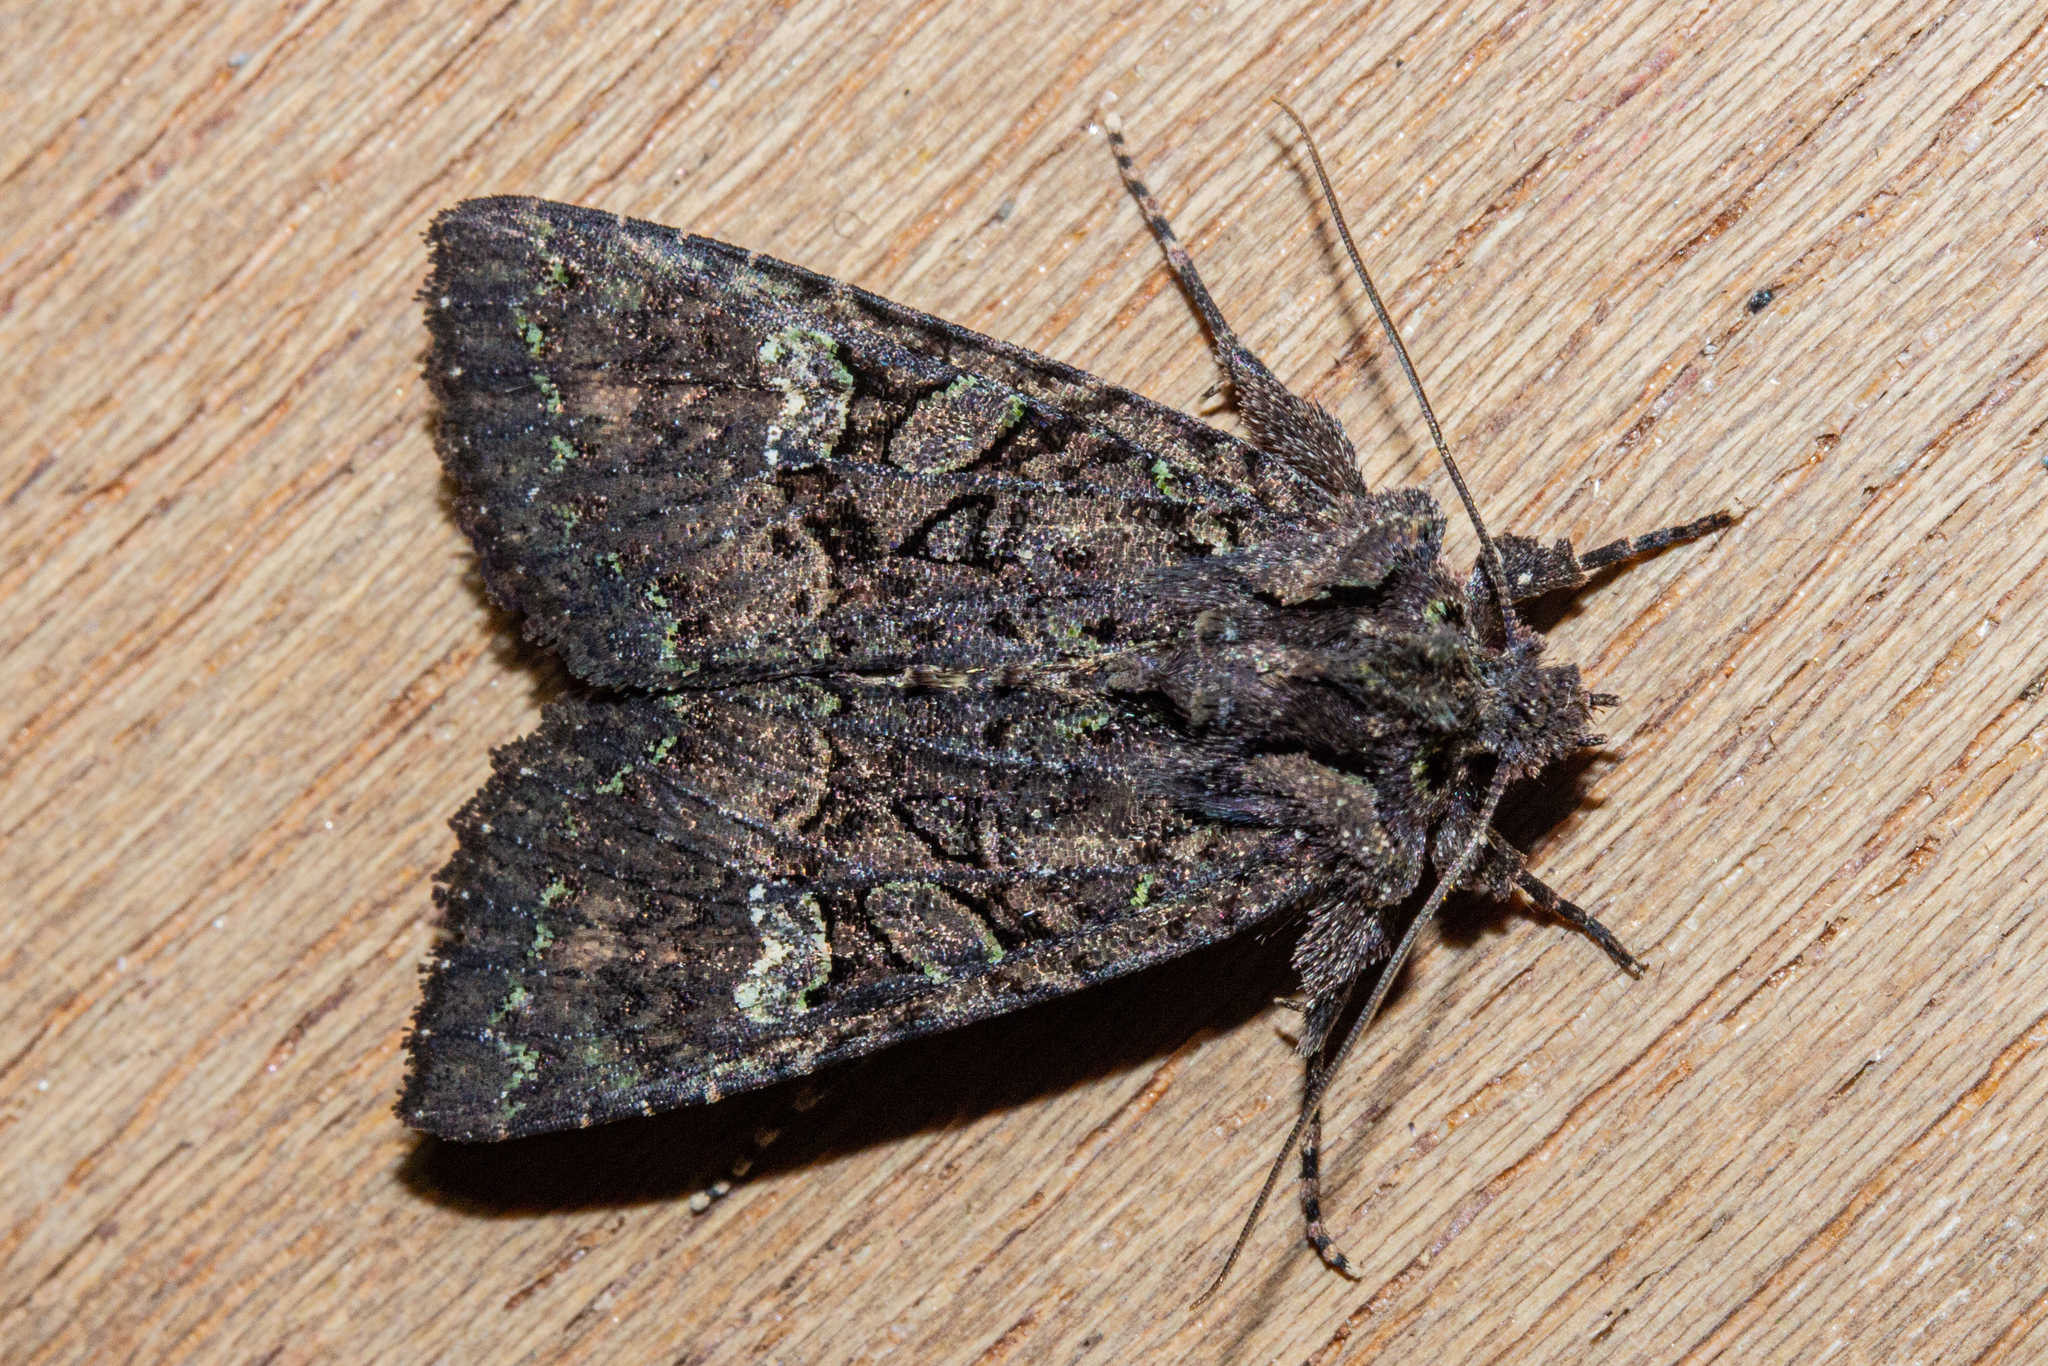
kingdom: Animalia
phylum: Arthropoda
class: Insecta
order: Lepidoptera
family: Noctuidae
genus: Meterana
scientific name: Meterana ochthistis
